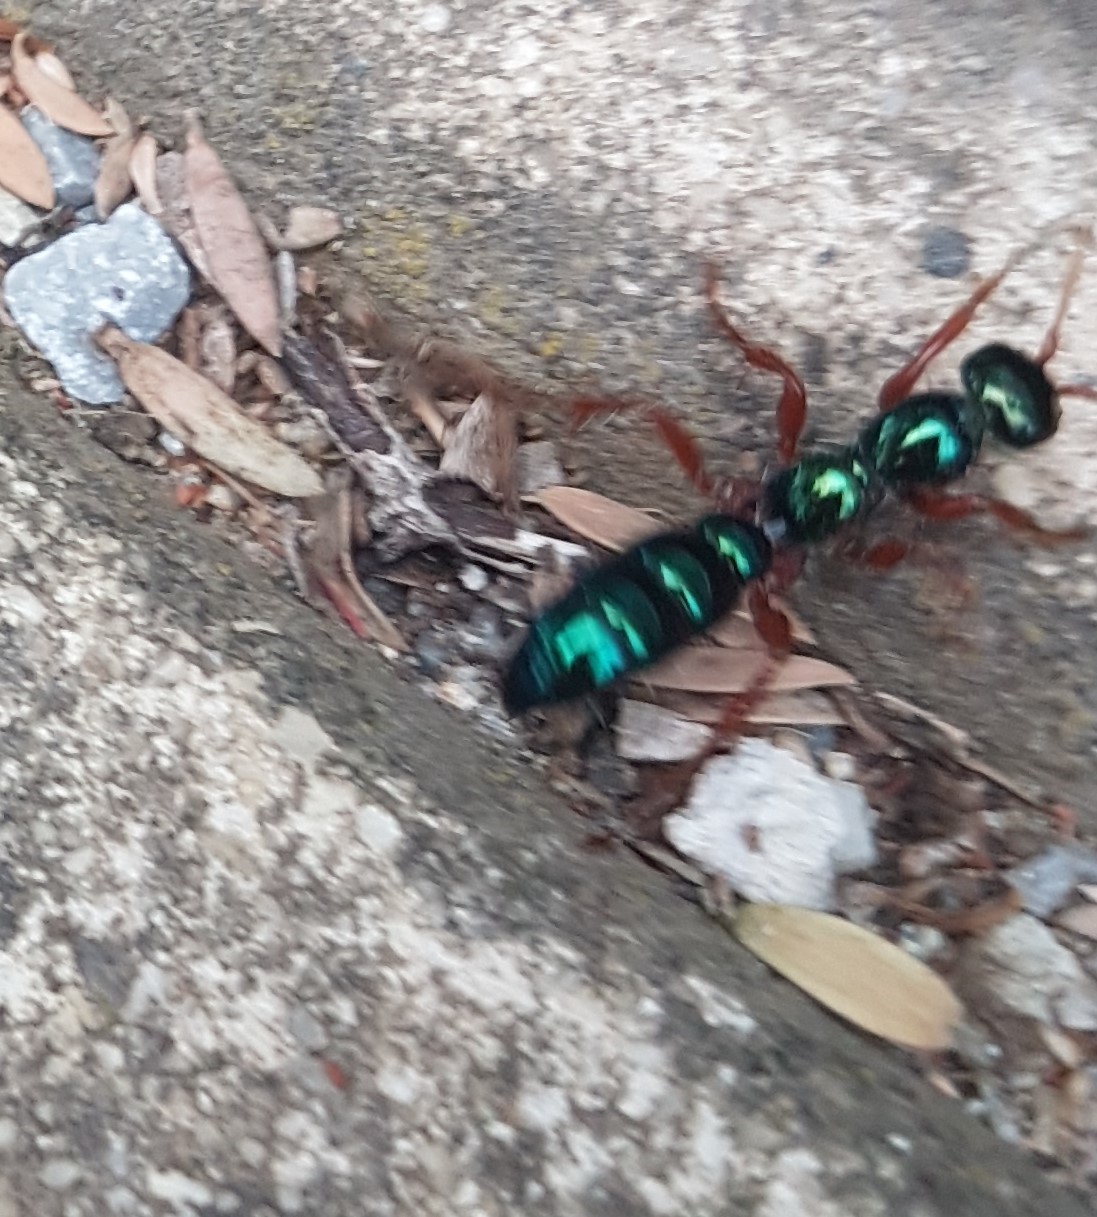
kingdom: Animalia
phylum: Arthropoda
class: Insecta
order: Hymenoptera
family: Tiphiidae
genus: Diamma
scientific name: Diamma
